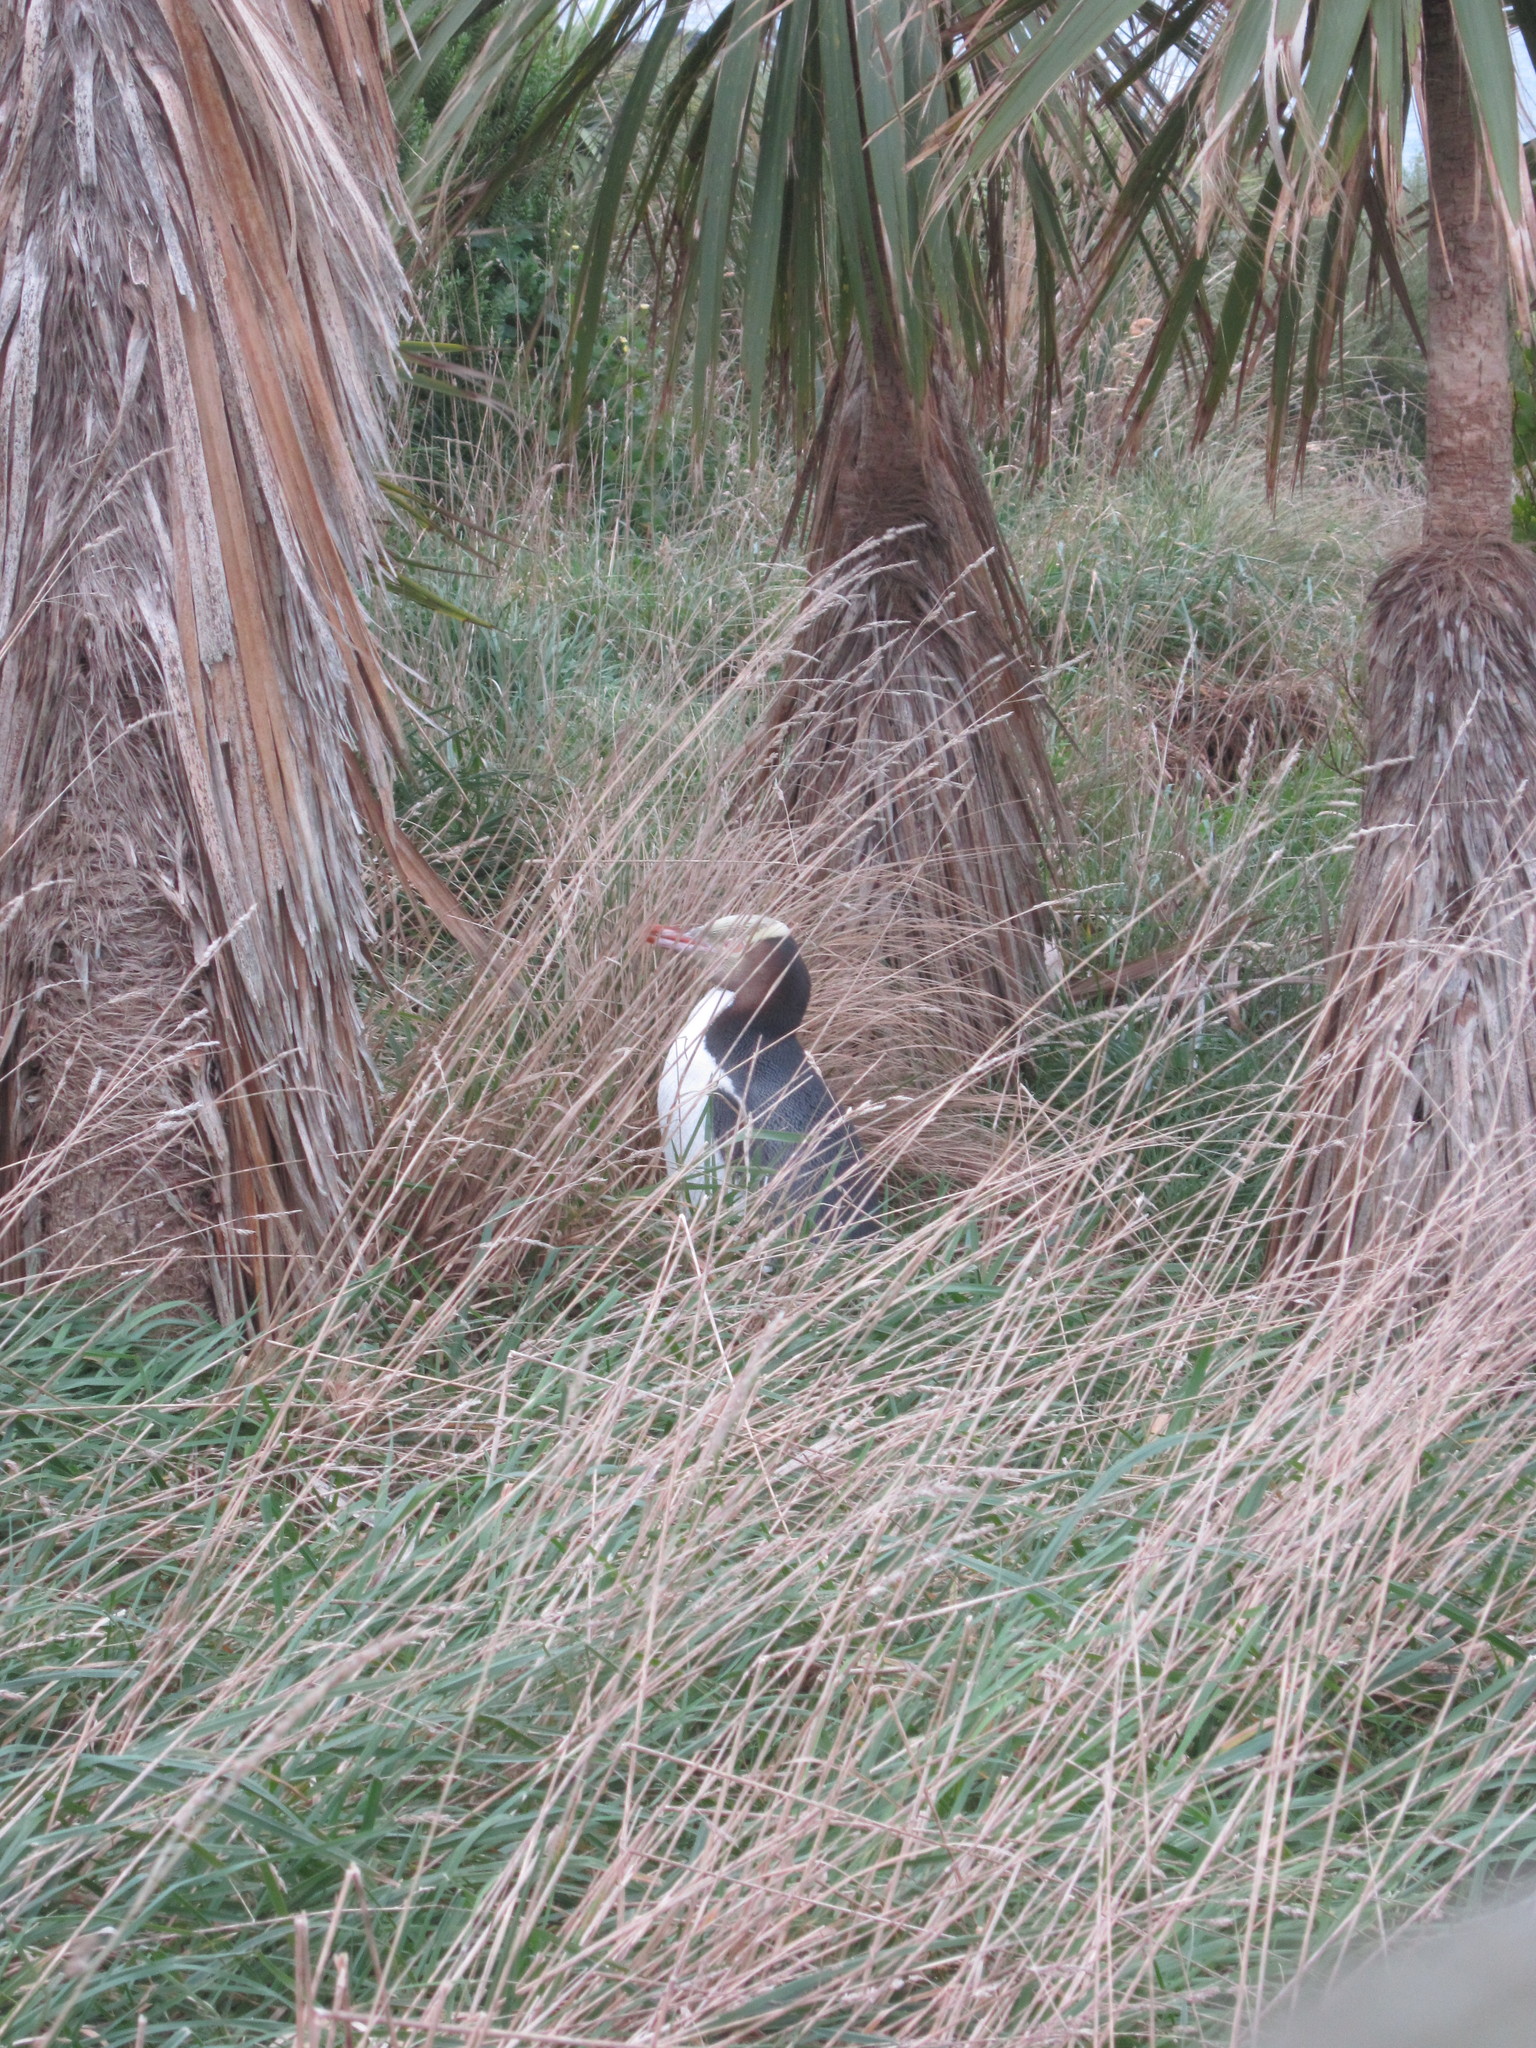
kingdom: Animalia
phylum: Chordata
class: Aves
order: Sphenisciformes
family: Spheniscidae
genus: Megadyptes
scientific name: Megadyptes antipodes
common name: Yellow-eyed penguin
